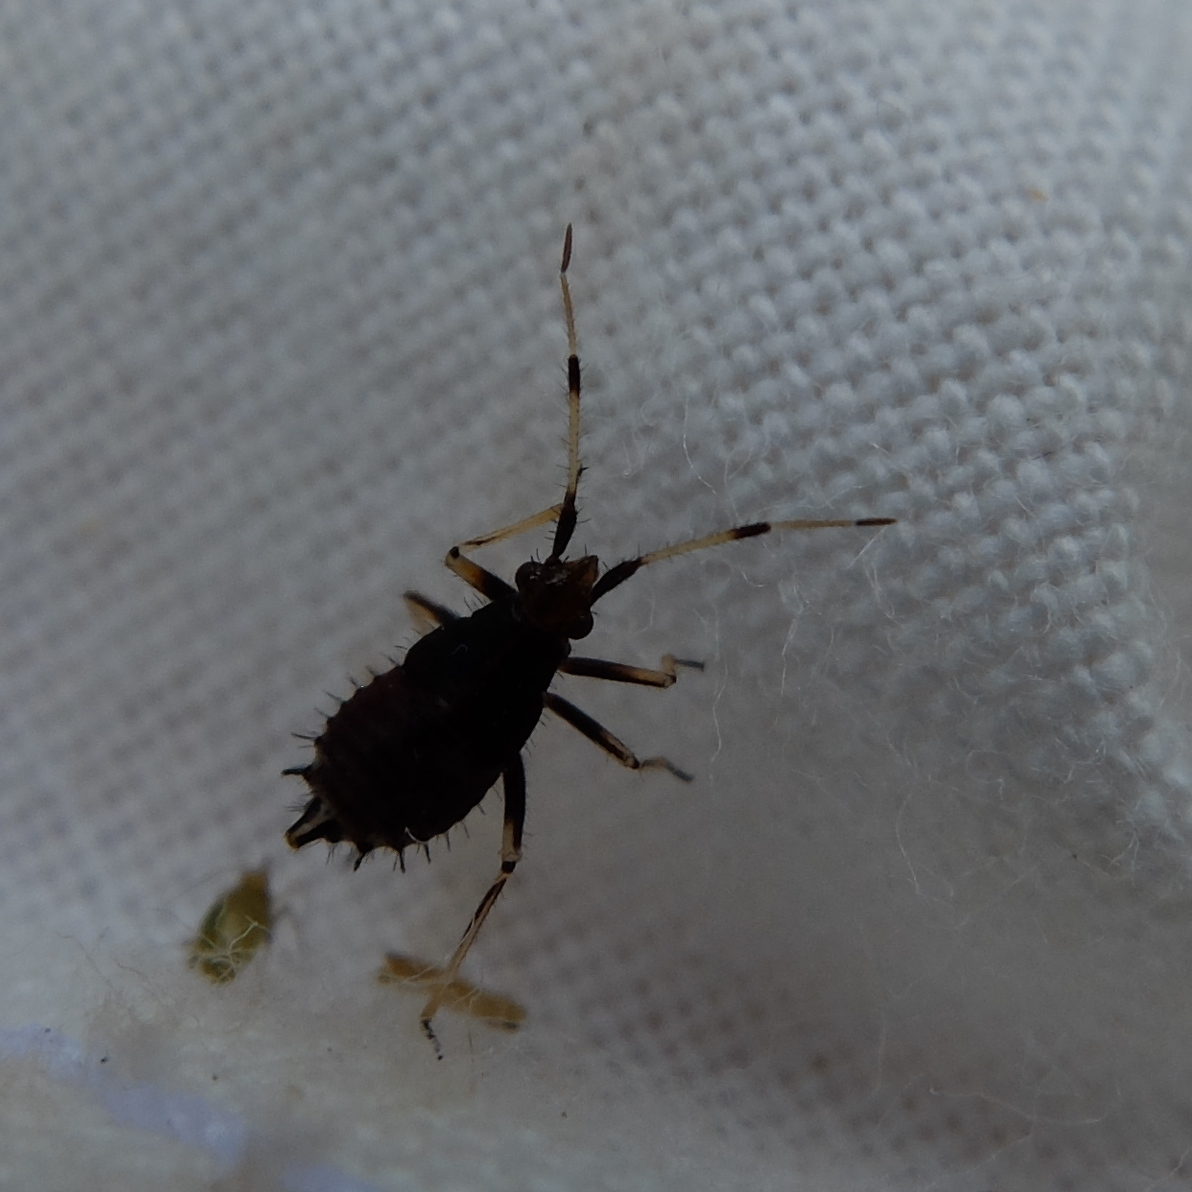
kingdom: Animalia
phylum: Arthropoda
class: Insecta
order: Hemiptera
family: Miridae
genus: Deraeocoris
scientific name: Deraeocoris ruber
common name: Plant bug
